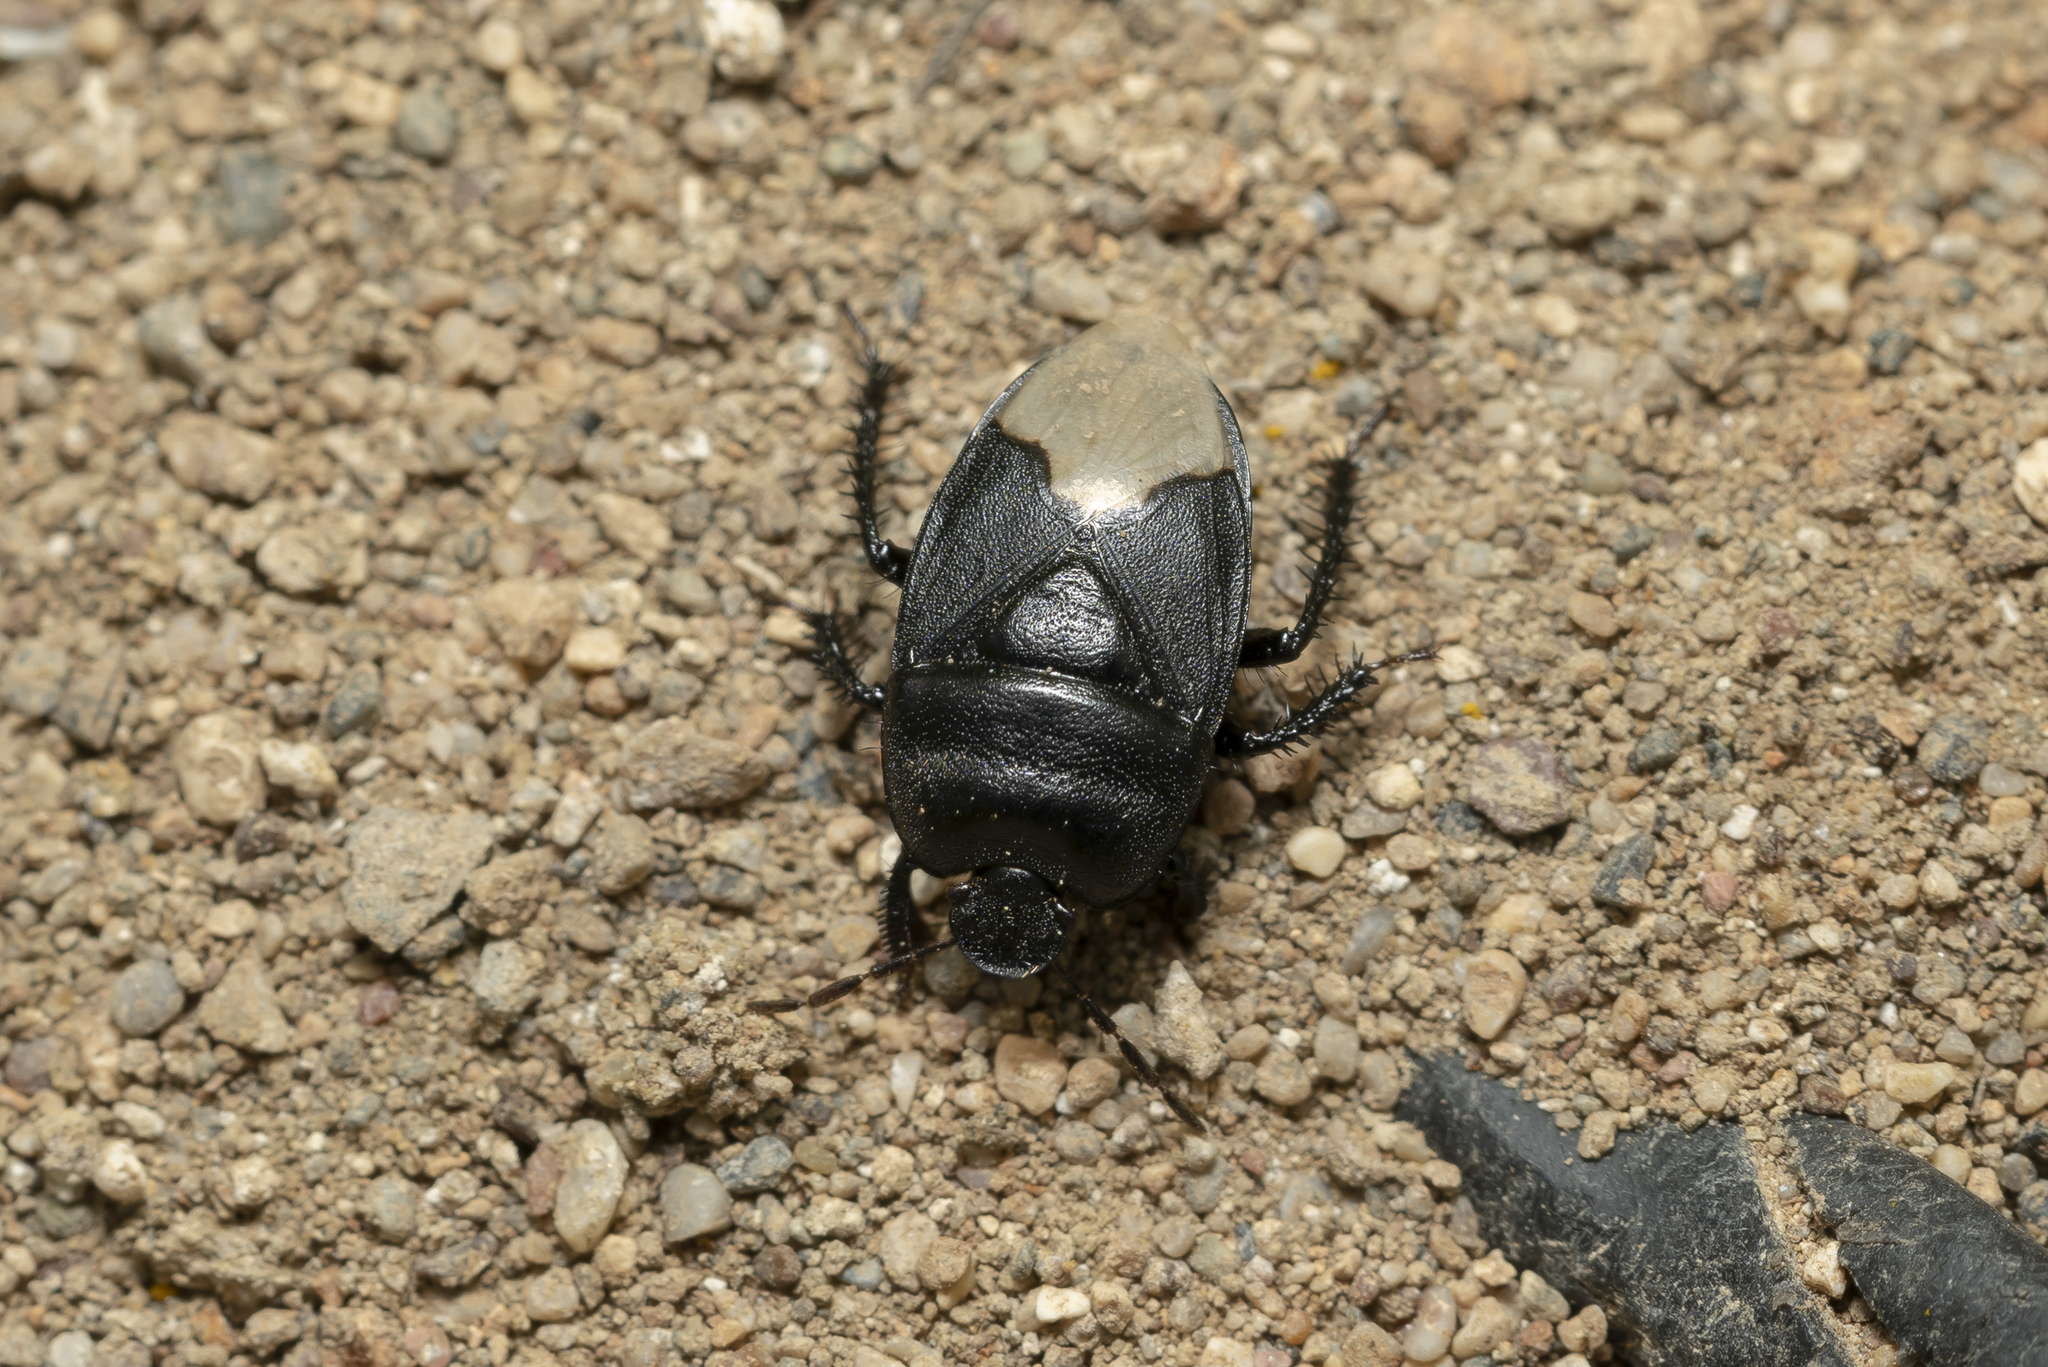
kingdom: Animalia
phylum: Arthropoda
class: Insecta
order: Hemiptera
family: Cydnidae
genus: Cydnus
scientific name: Cydnus aterrimus
